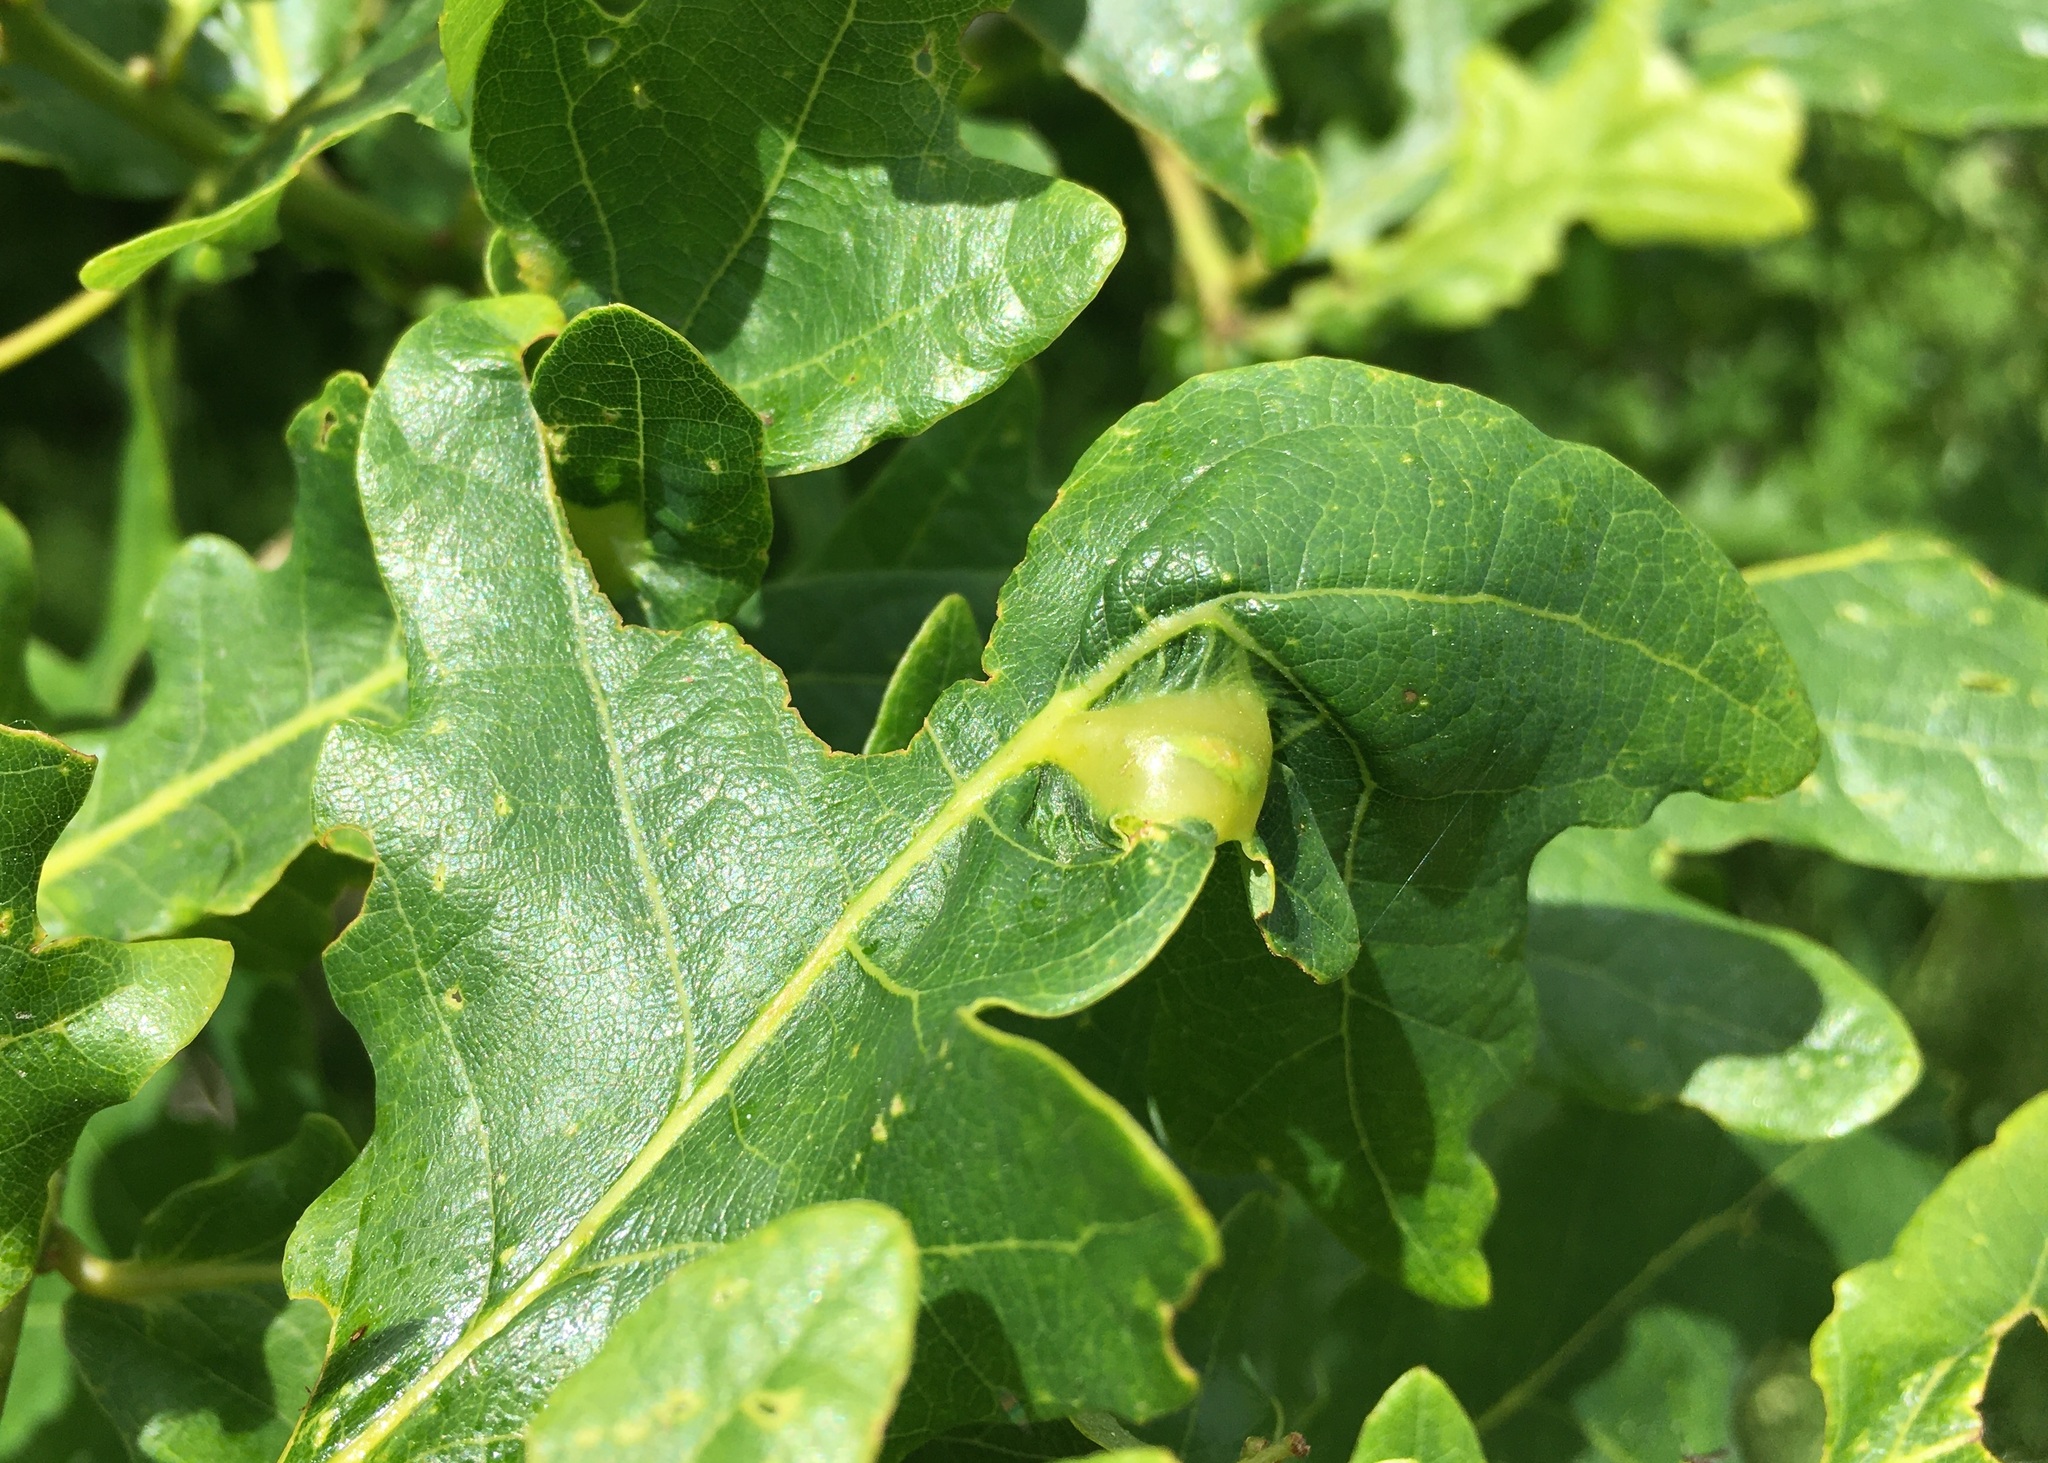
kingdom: Animalia
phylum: Arthropoda
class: Insecta
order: Hymenoptera
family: Cynipidae
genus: Andricus
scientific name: Andricus curvator
